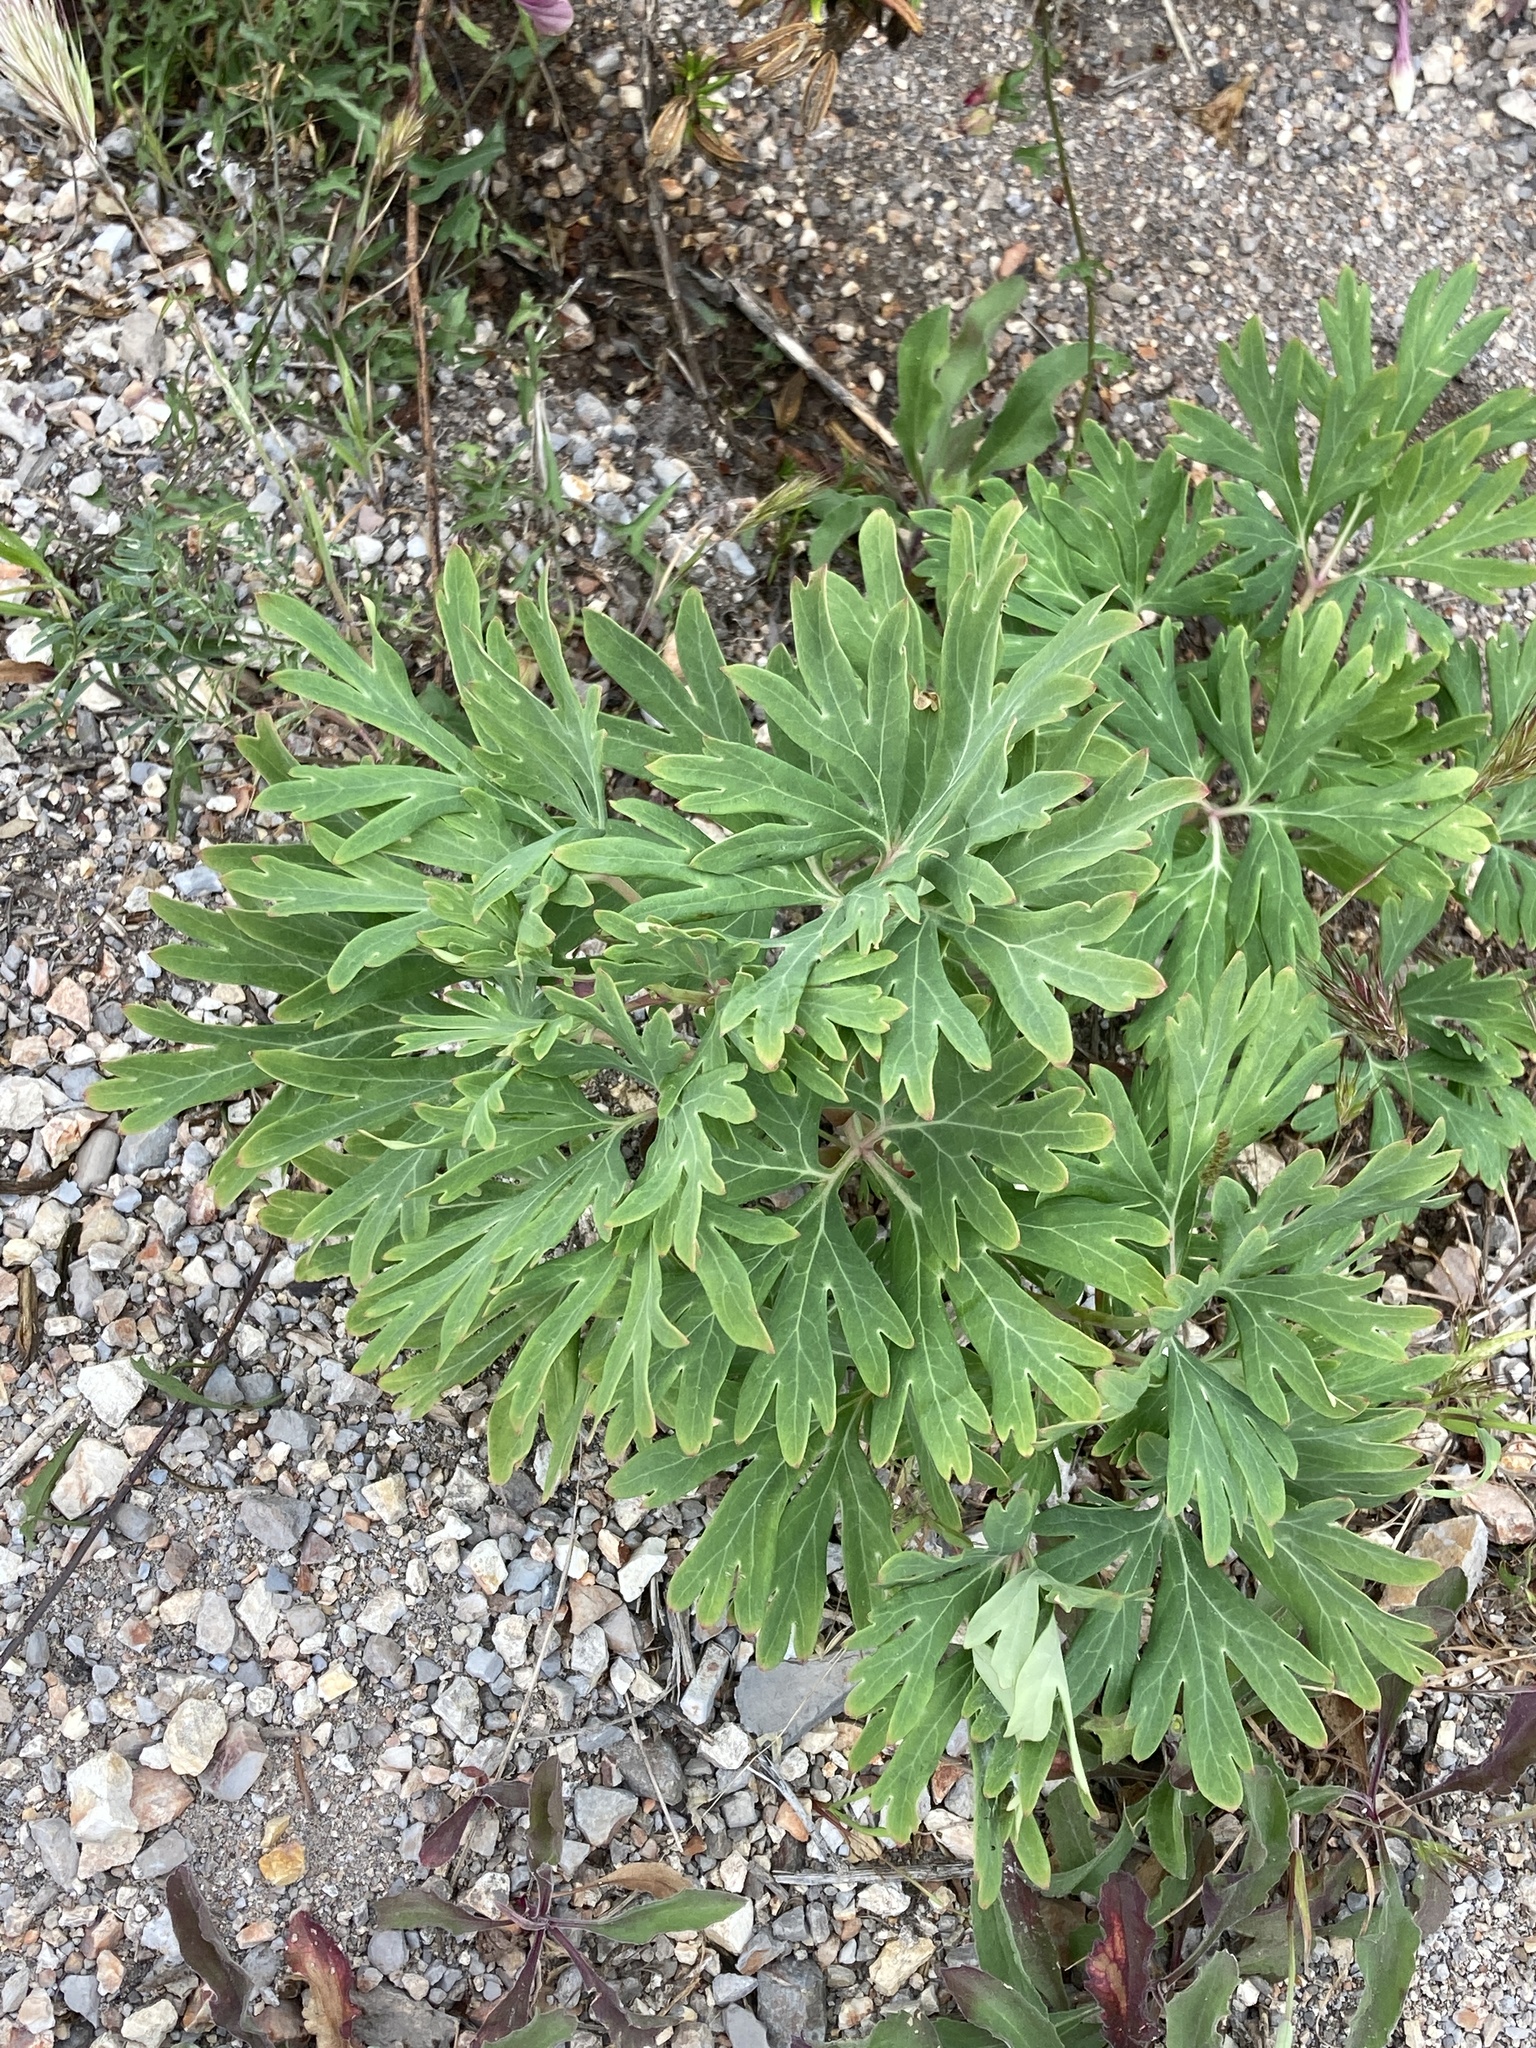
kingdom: Plantae
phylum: Tracheophyta
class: Magnoliopsida
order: Saxifragales
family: Paeoniaceae
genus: Paeonia
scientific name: Paeonia californica
